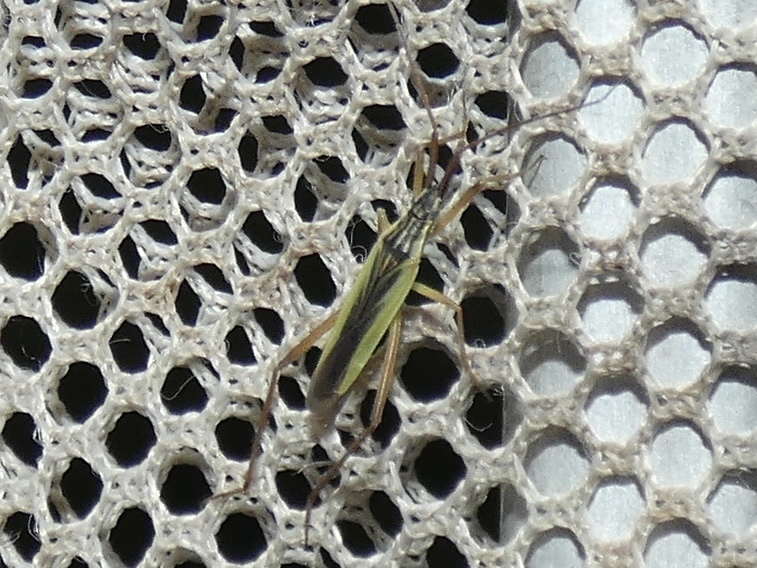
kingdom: Animalia
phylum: Arthropoda
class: Insecta
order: Hemiptera
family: Miridae
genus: Notostira
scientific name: Notostira elongata
